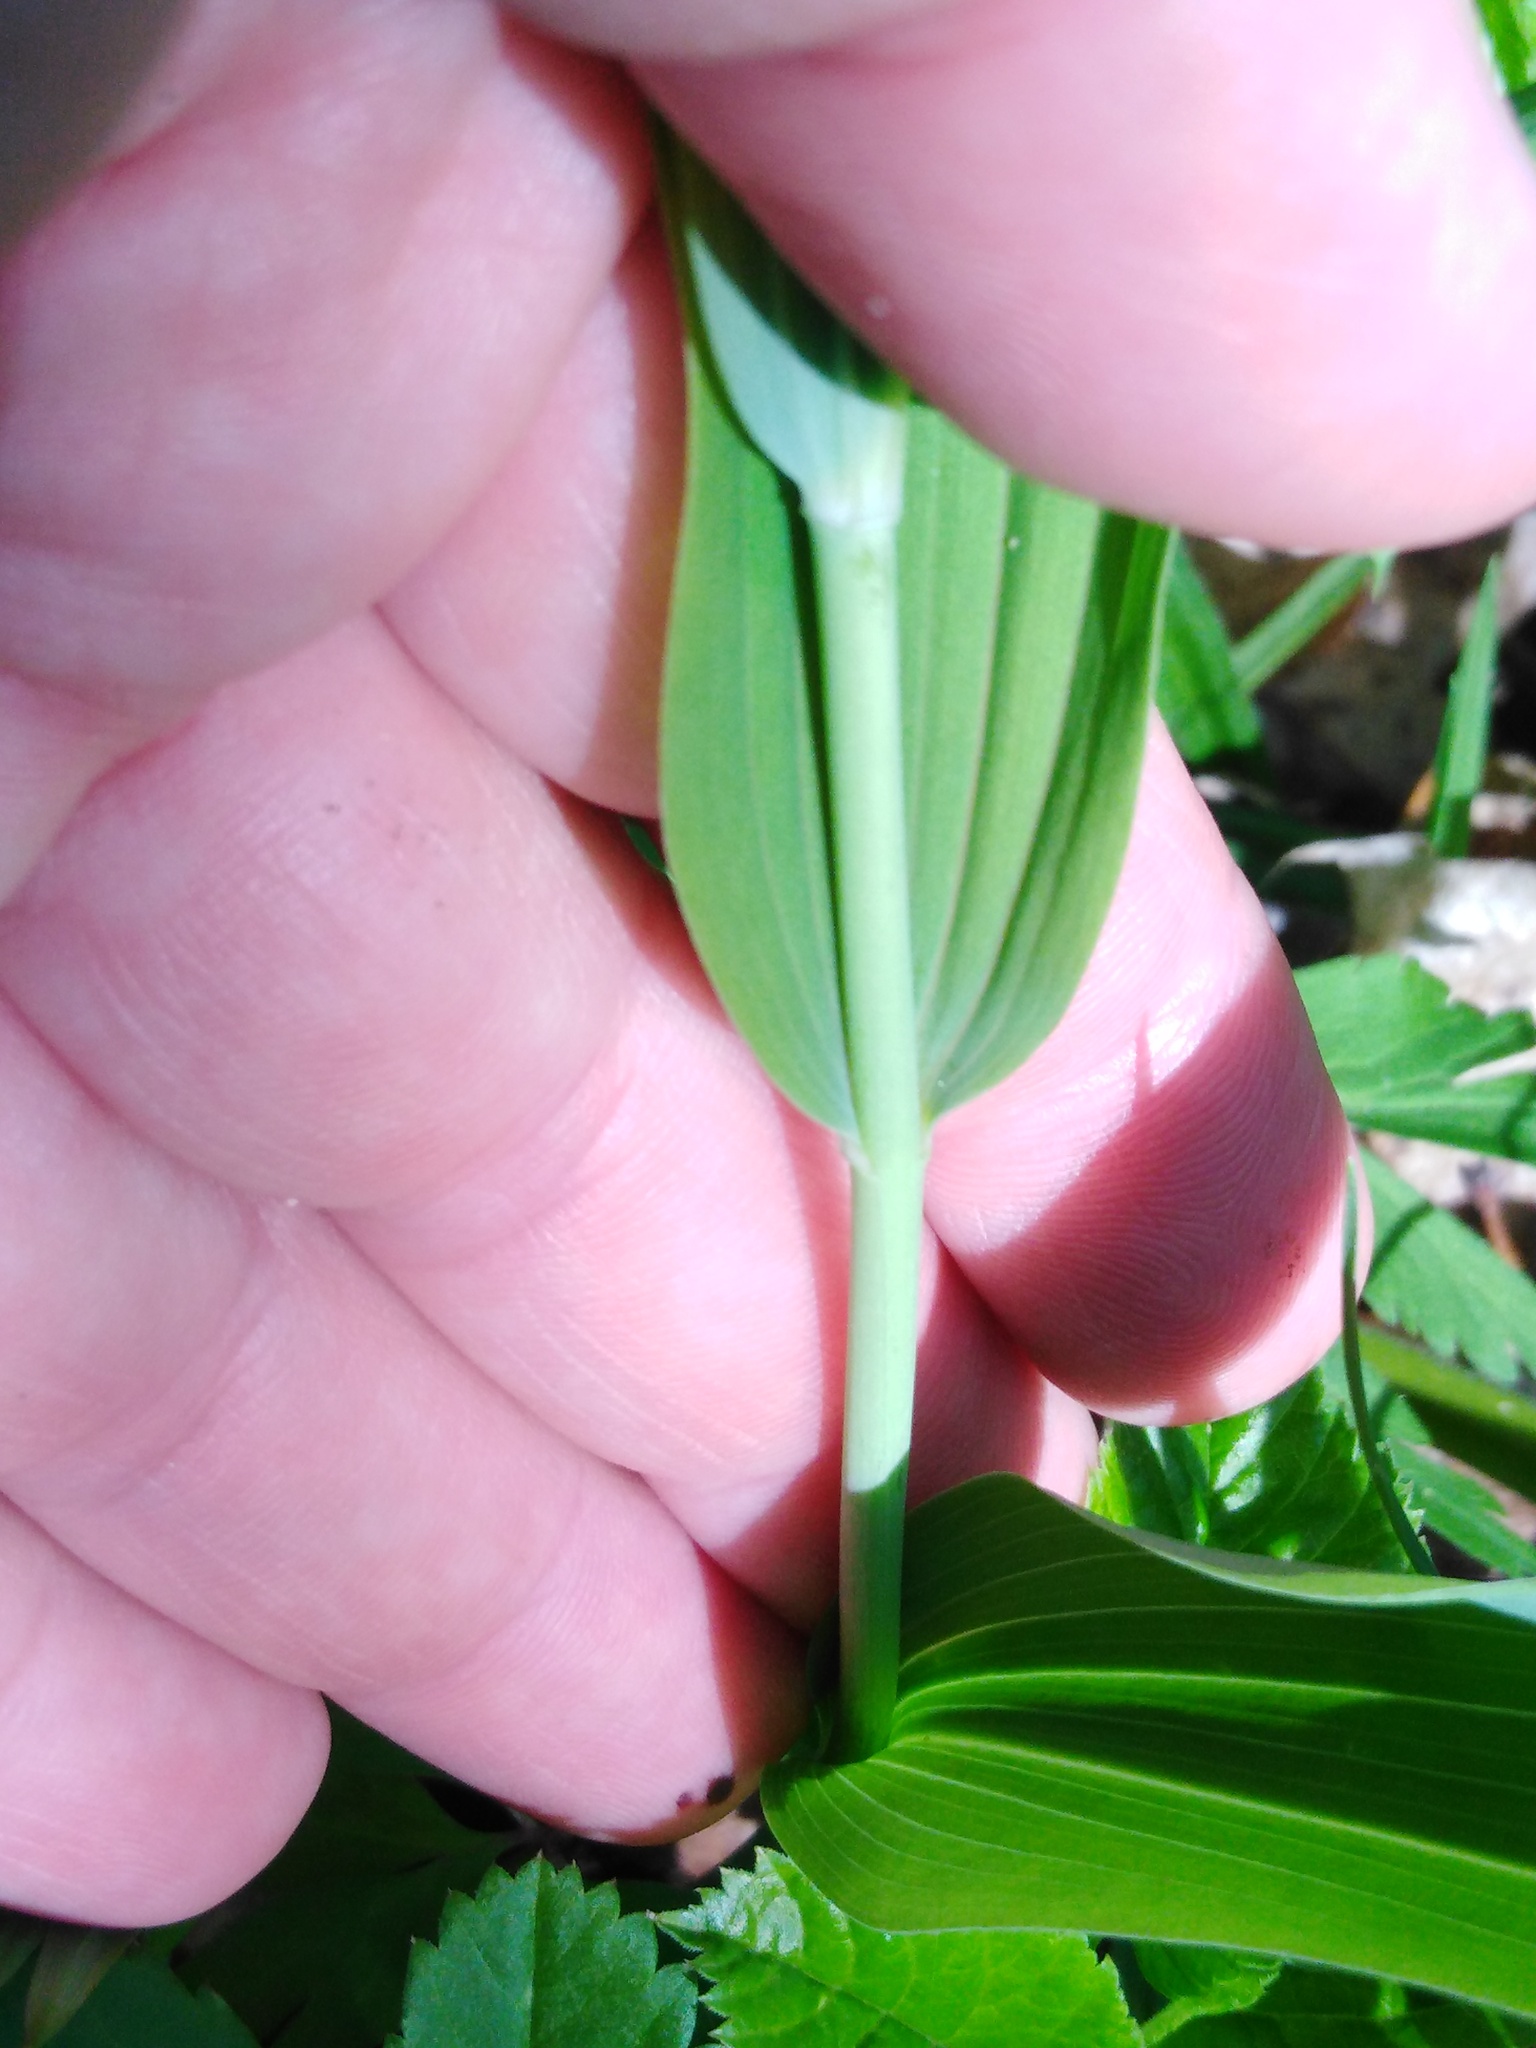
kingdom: Plantae
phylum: Tracheophyta
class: Liliopsida
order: Asparagales
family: Asparagaceae
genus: Polygonatum
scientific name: Polygonatum multiflorum
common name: Solomon's-seal
